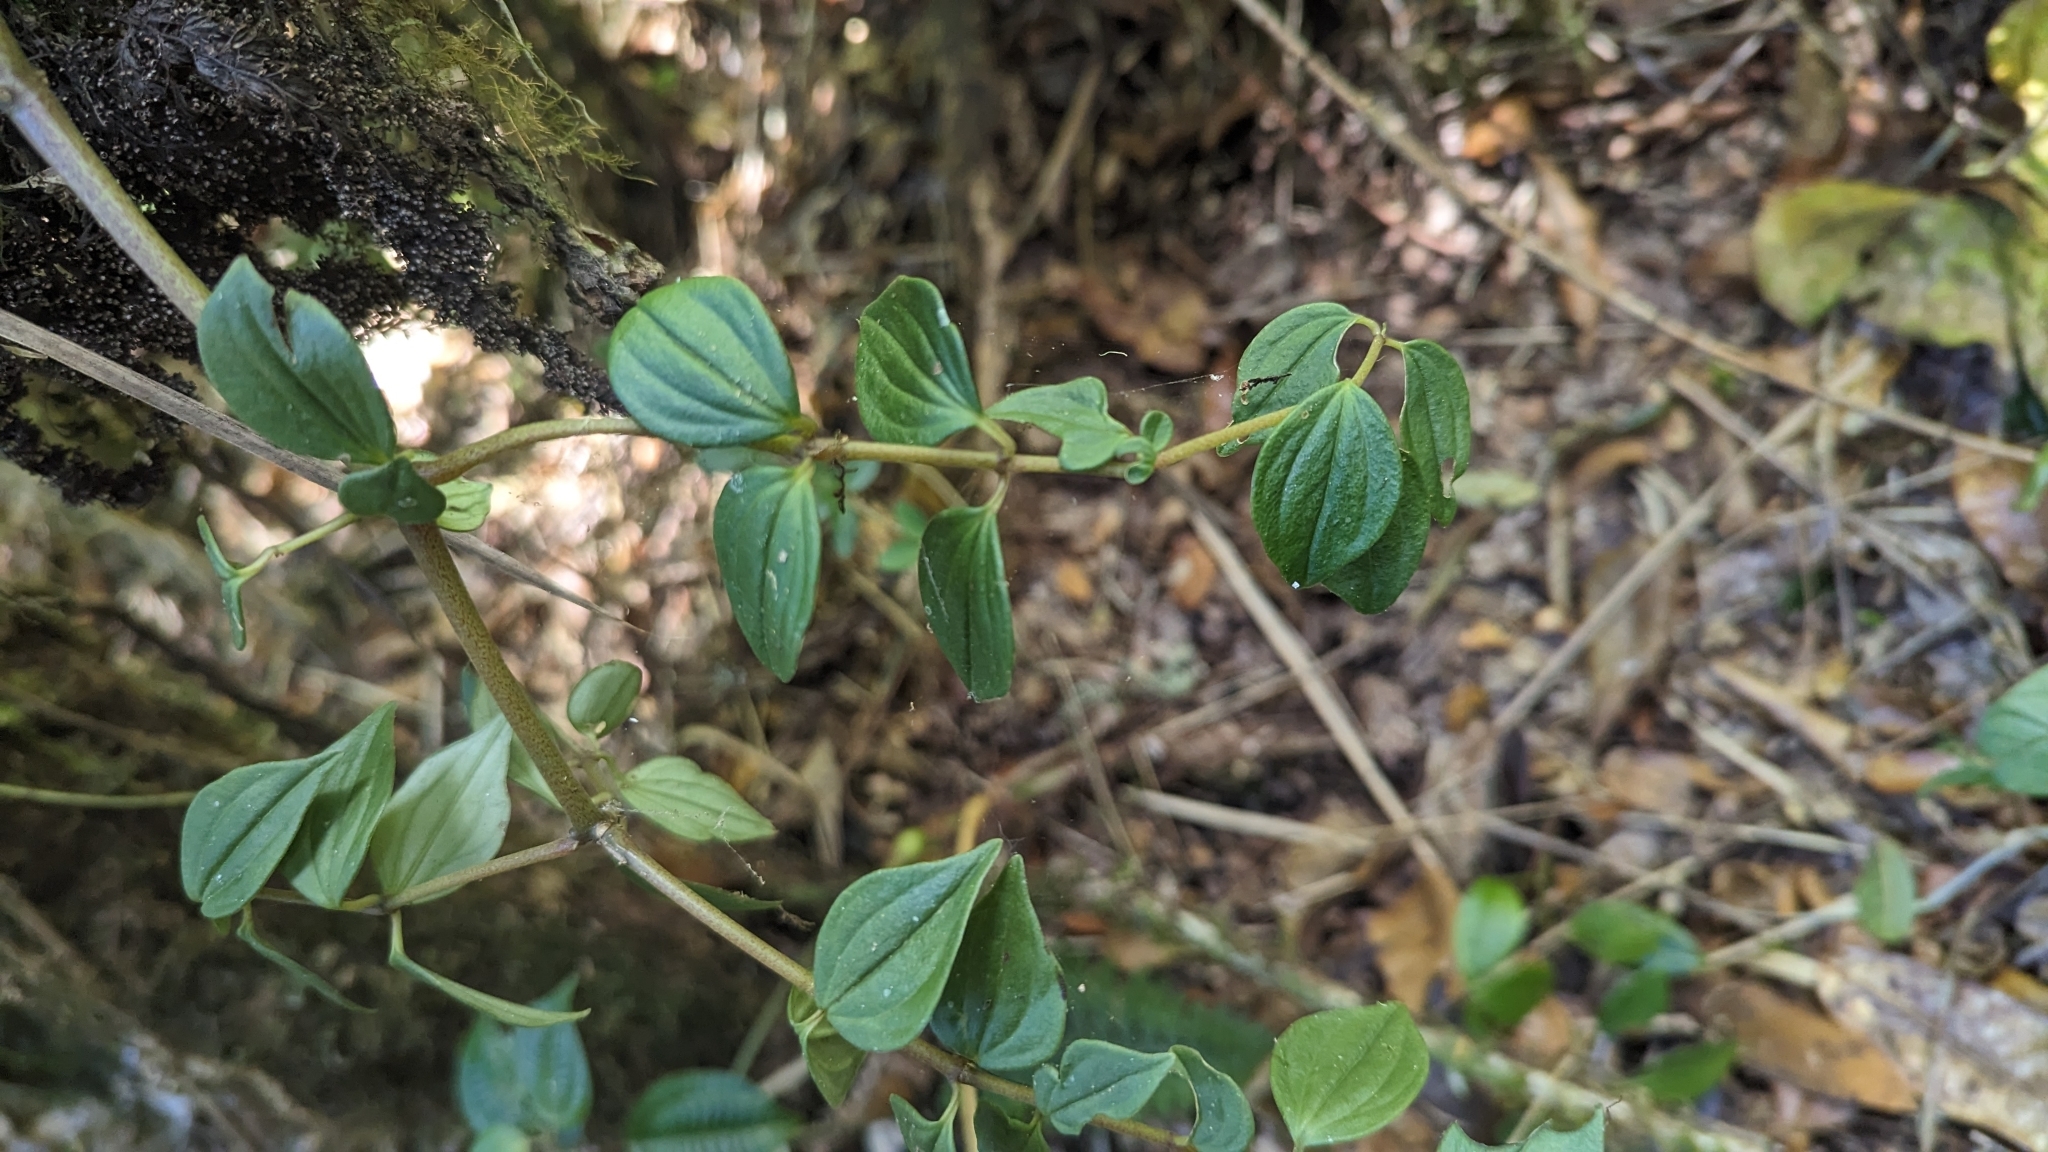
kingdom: Plantae
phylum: Tracheophyta
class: Magnoliopsida
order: Piperales
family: Piperaceae
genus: Peperomia
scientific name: Peperomia palmana
